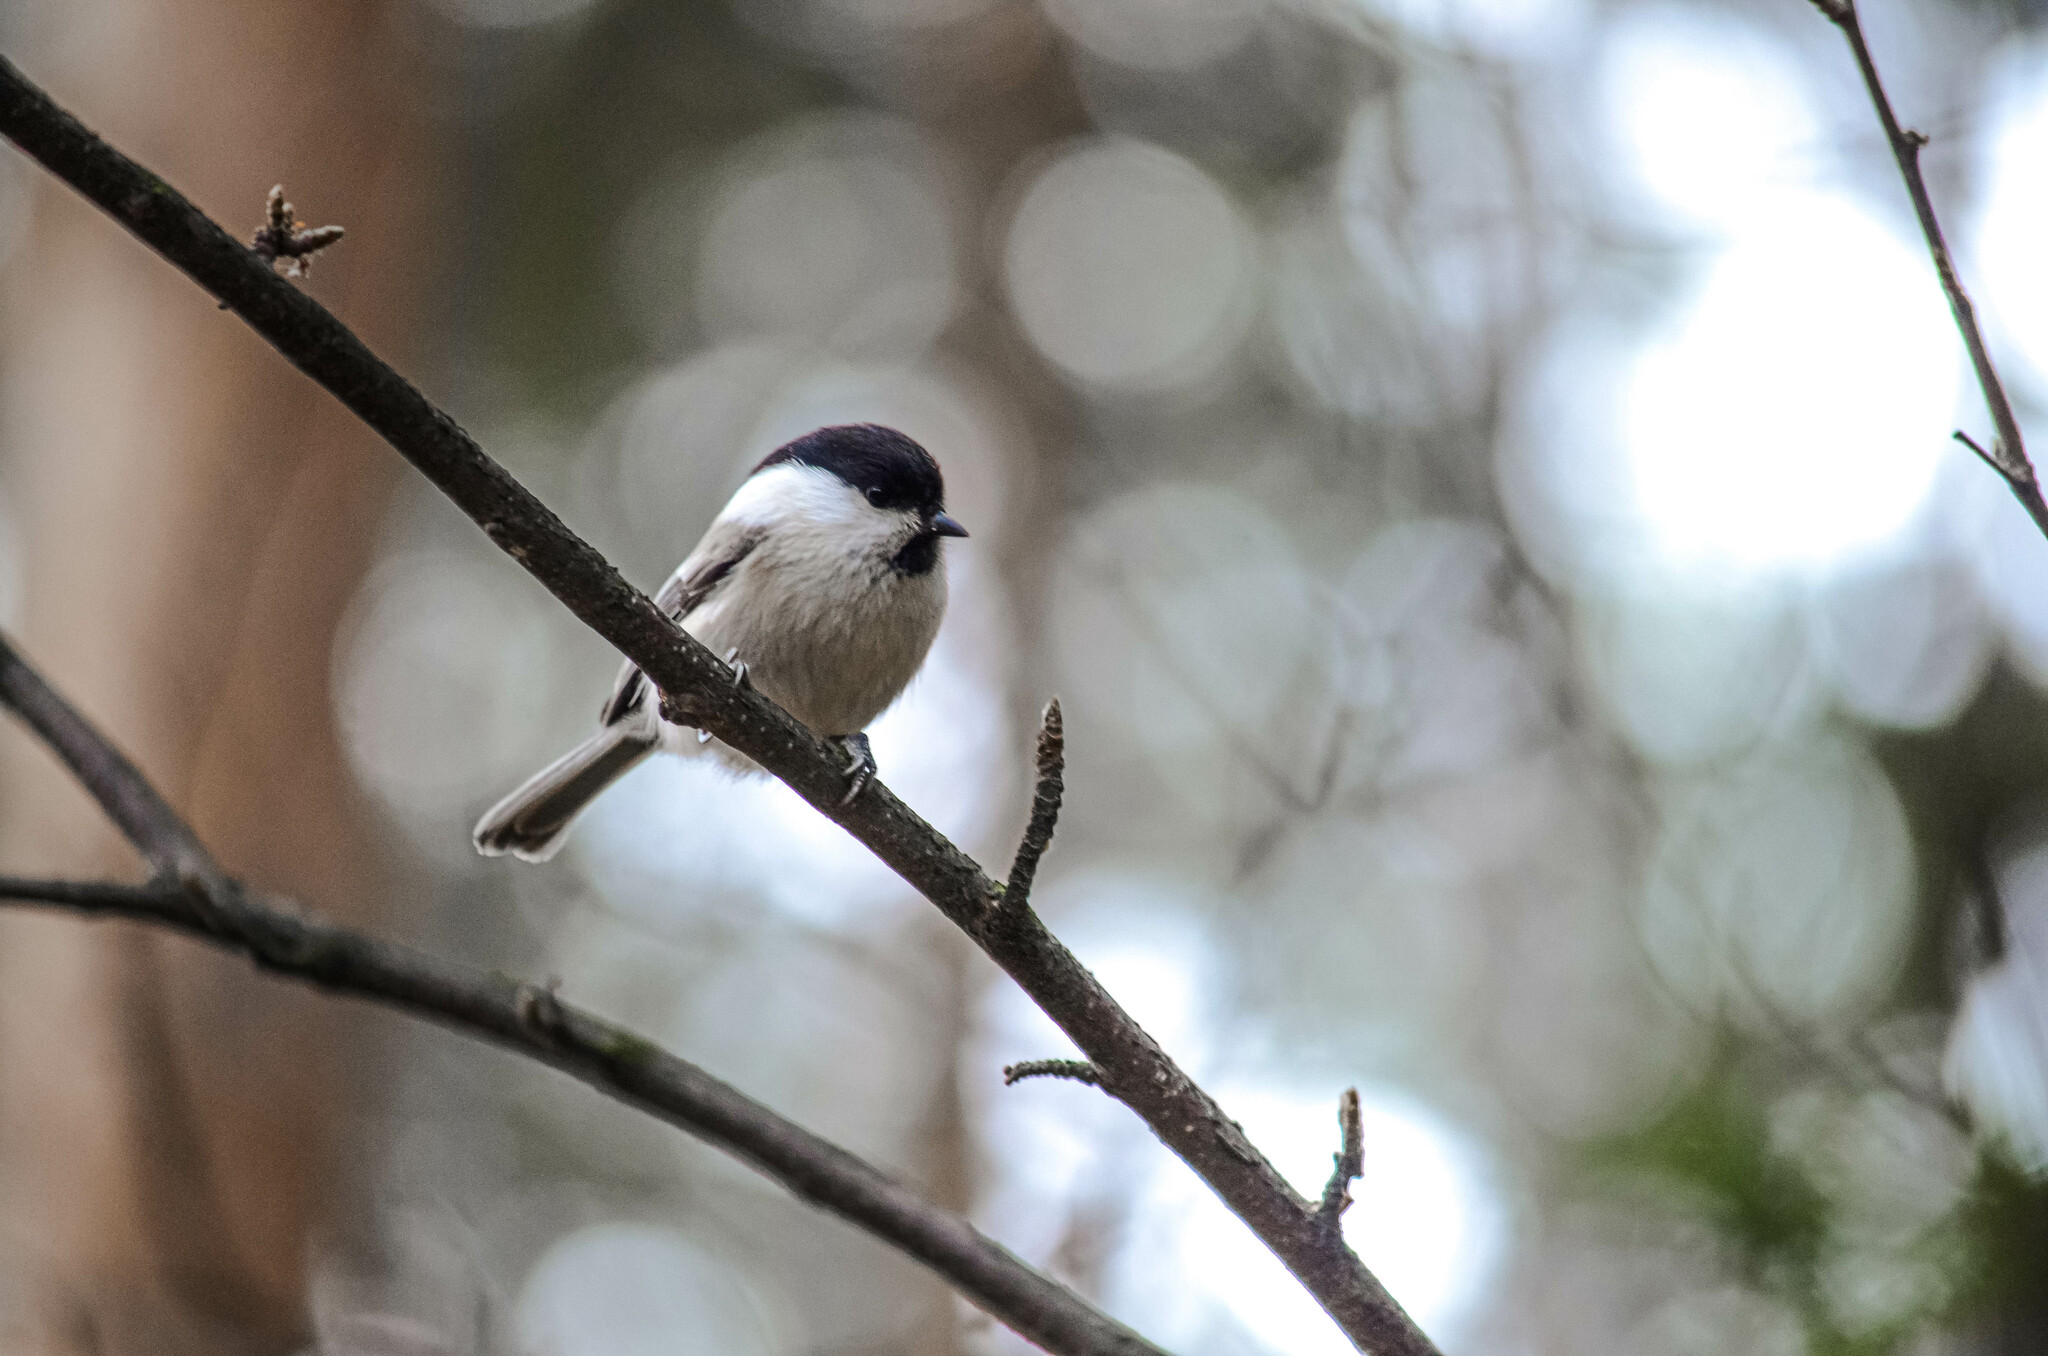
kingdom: Animalia
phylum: Chordata
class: Aves
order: Passeriformes
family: Paridae
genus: Poecile
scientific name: Poecile montanus
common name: Willow tit
